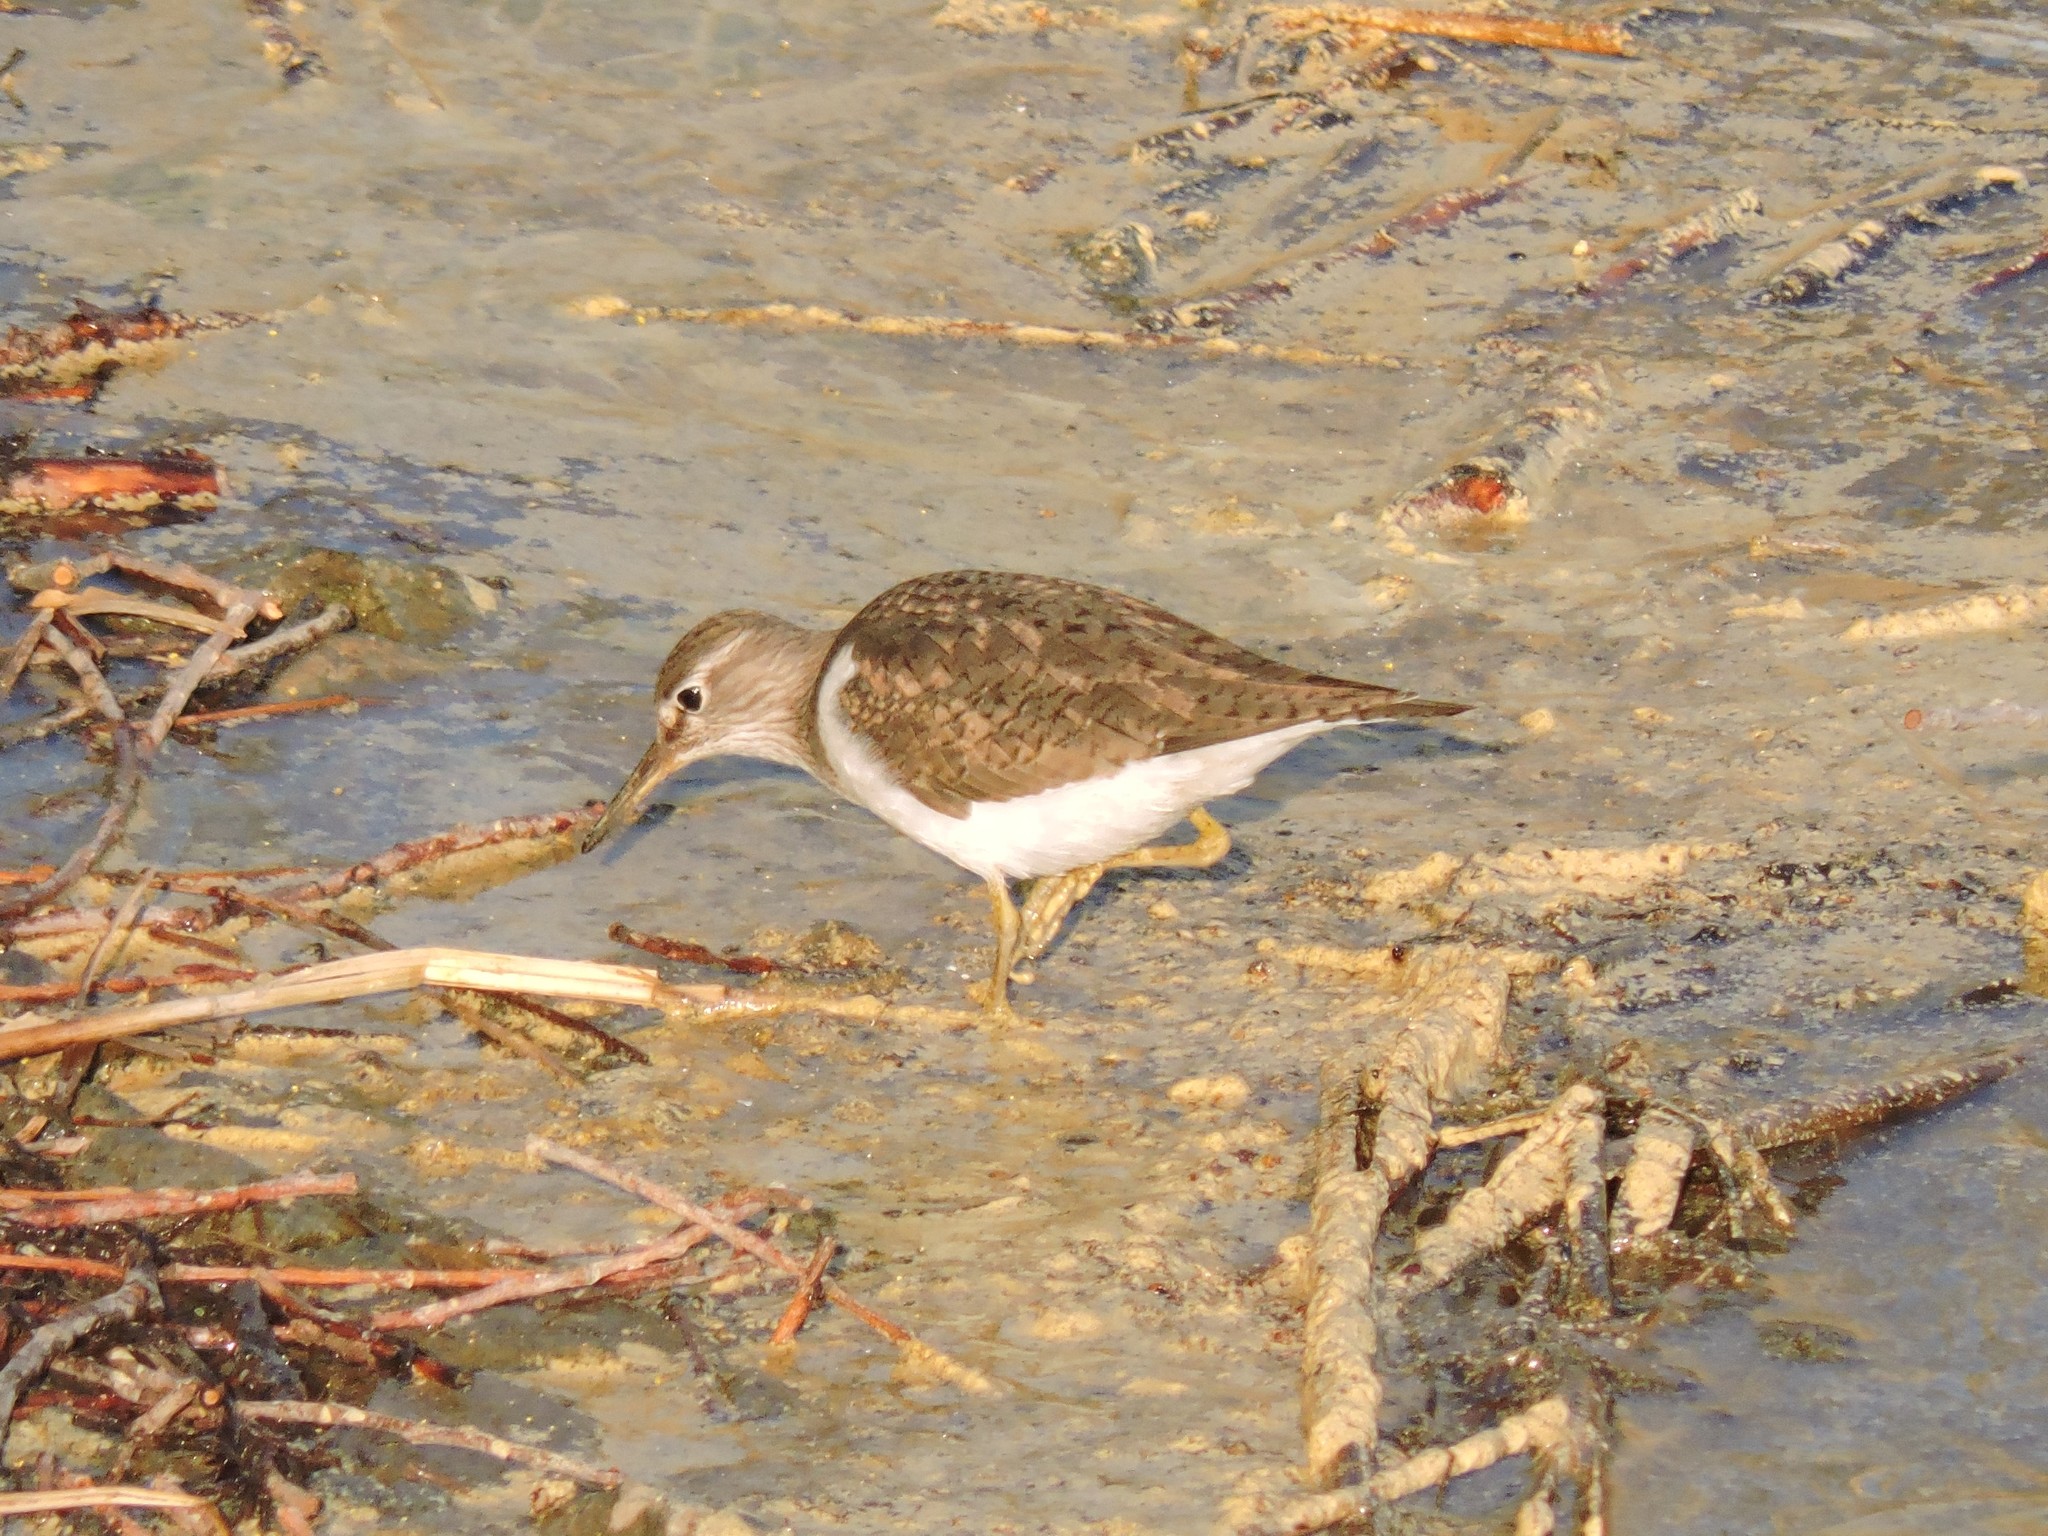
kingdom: Animalia
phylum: Chordata
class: Aves
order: Charadriiformes
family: Scolopacidae
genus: Actitis
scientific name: Actitis hypoleucos
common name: Common sandpiper
